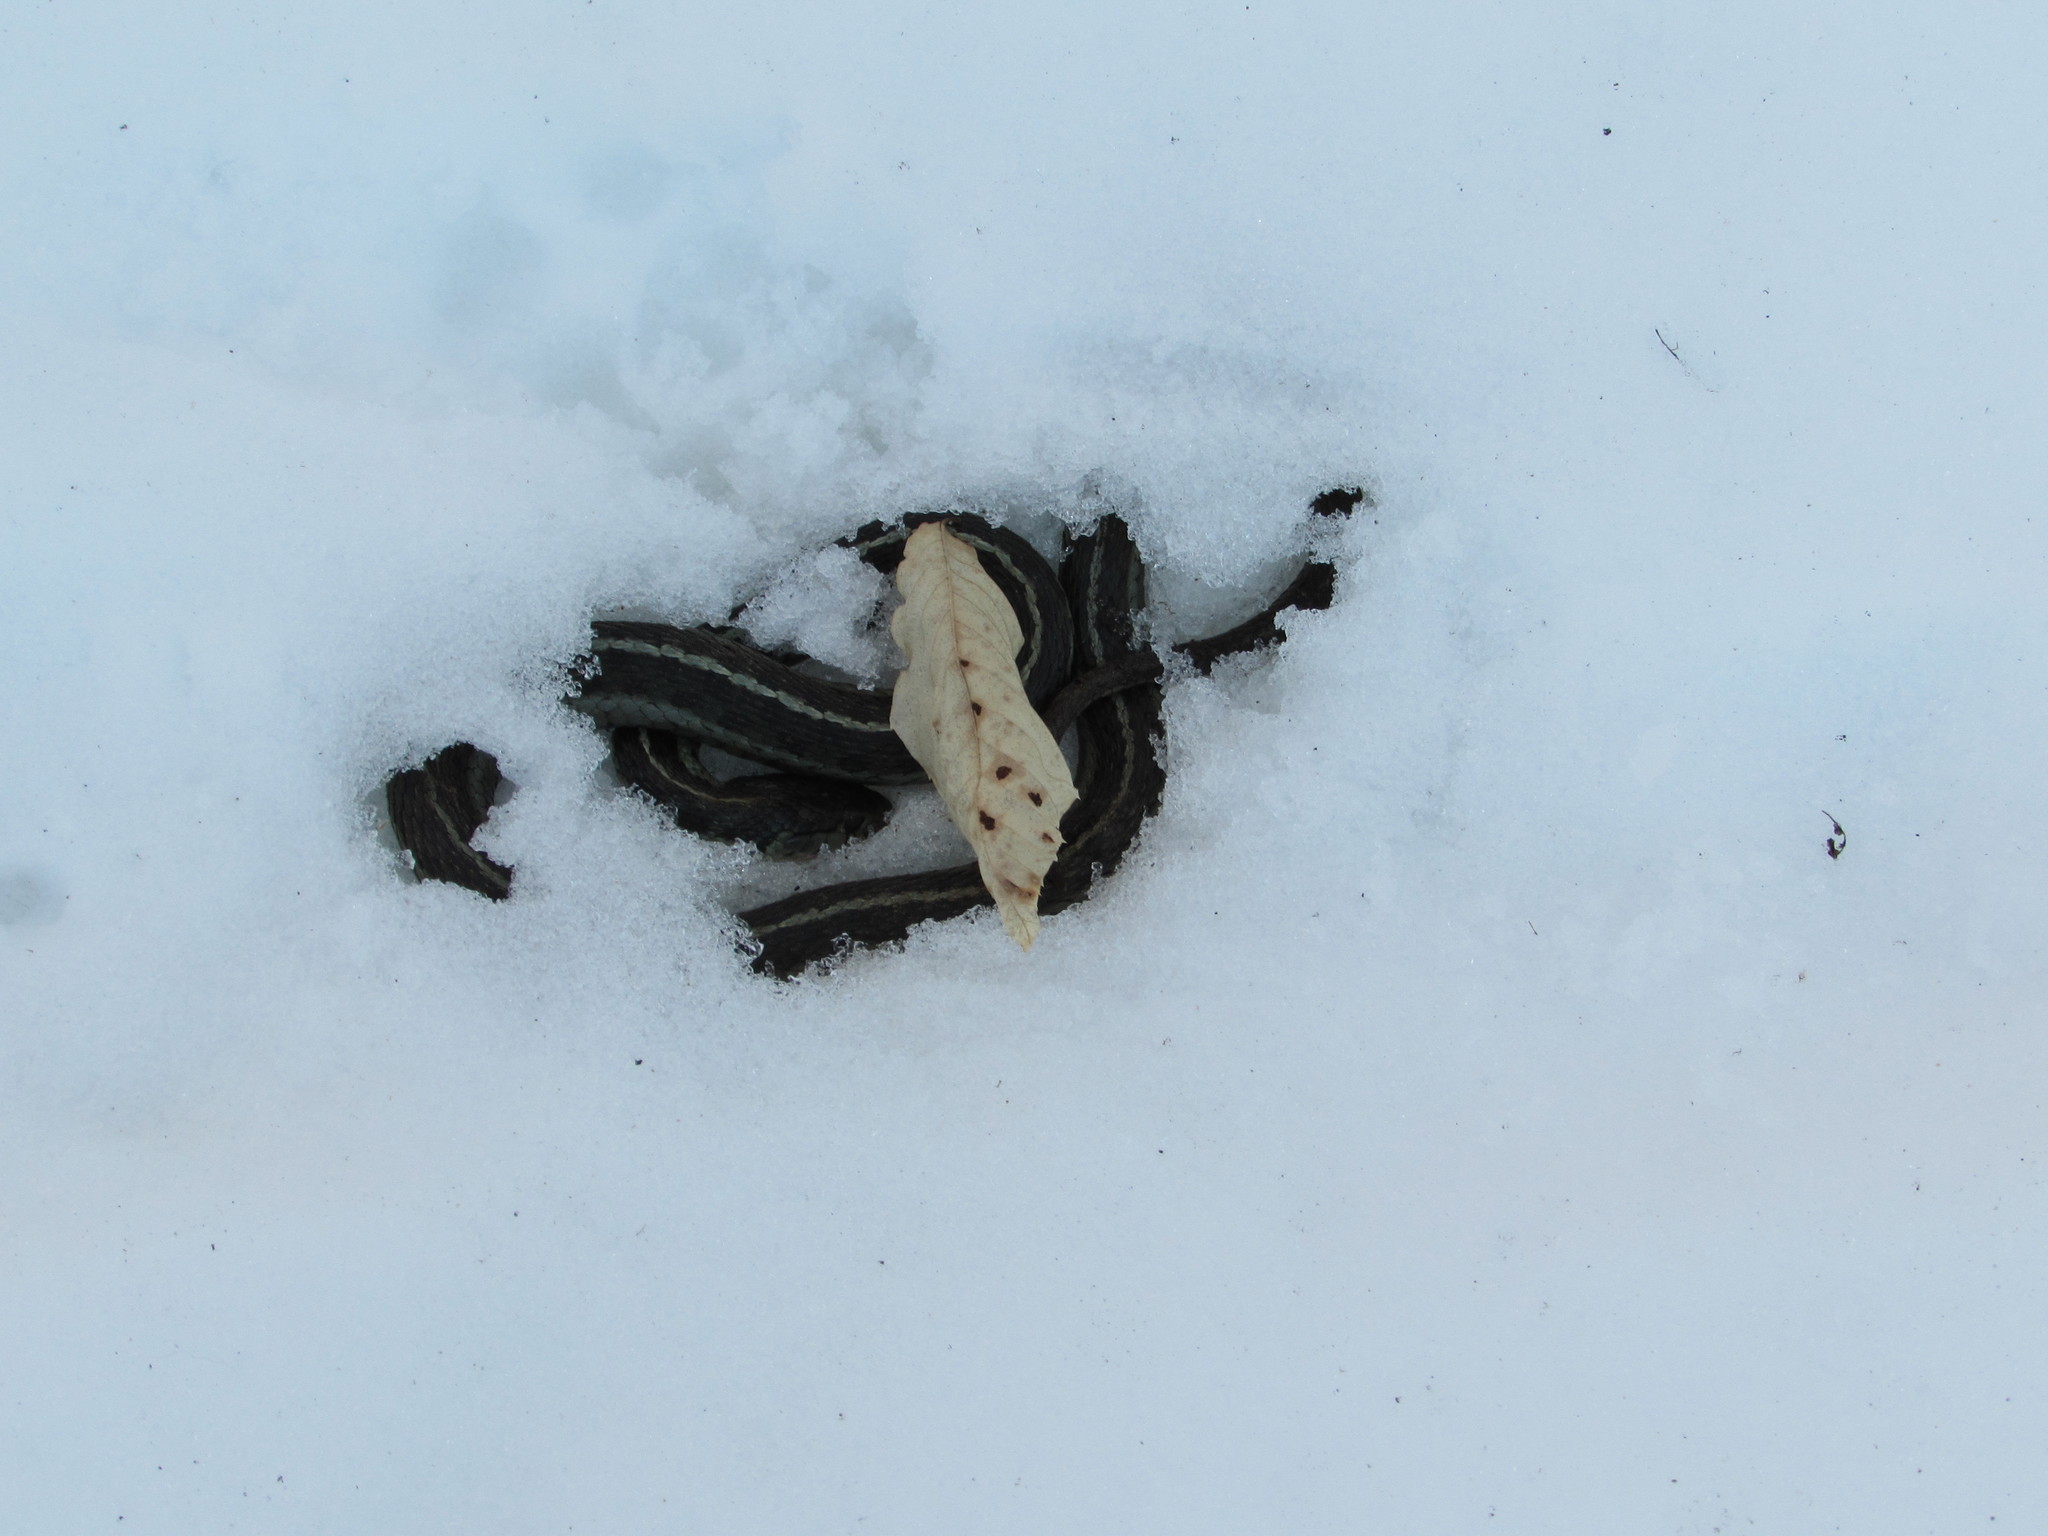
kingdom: Animalia
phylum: Chordata
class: Squamata
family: Colubridae
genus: Thamnophis
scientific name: Thamnophis sirtalis
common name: Common garter snake
